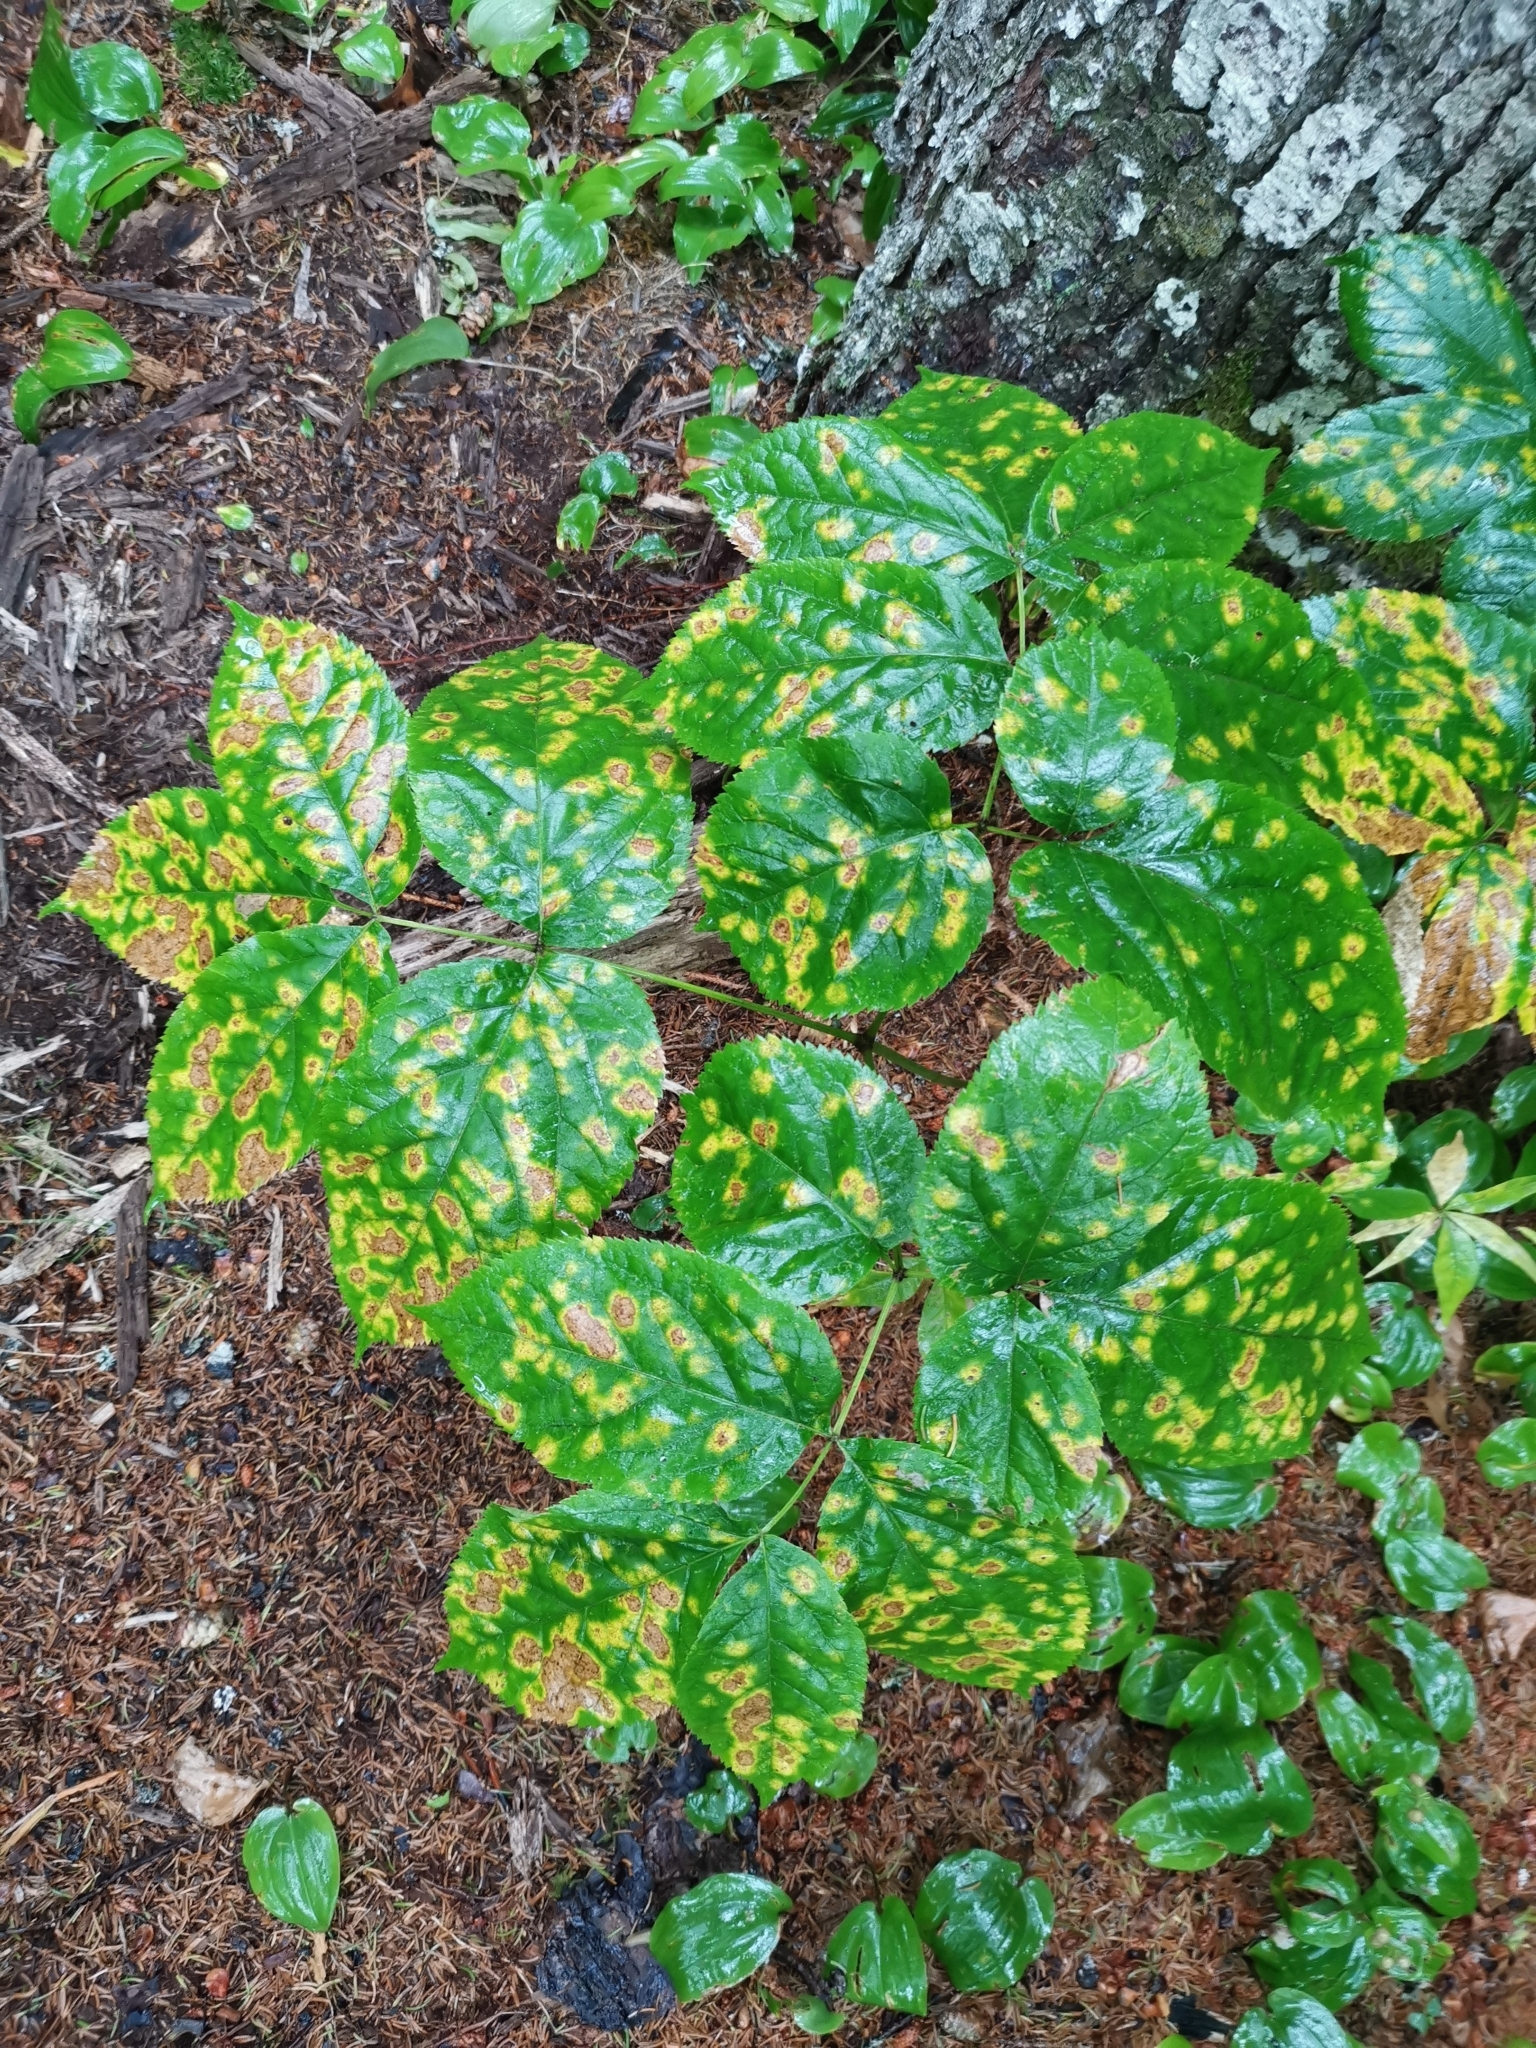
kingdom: Plantae
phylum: Tracheophyta
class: Magnoliopsida
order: Apiales
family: Araliaceae
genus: Aralia
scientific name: Aralia nudicaulis
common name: Wild sarsaparilla
